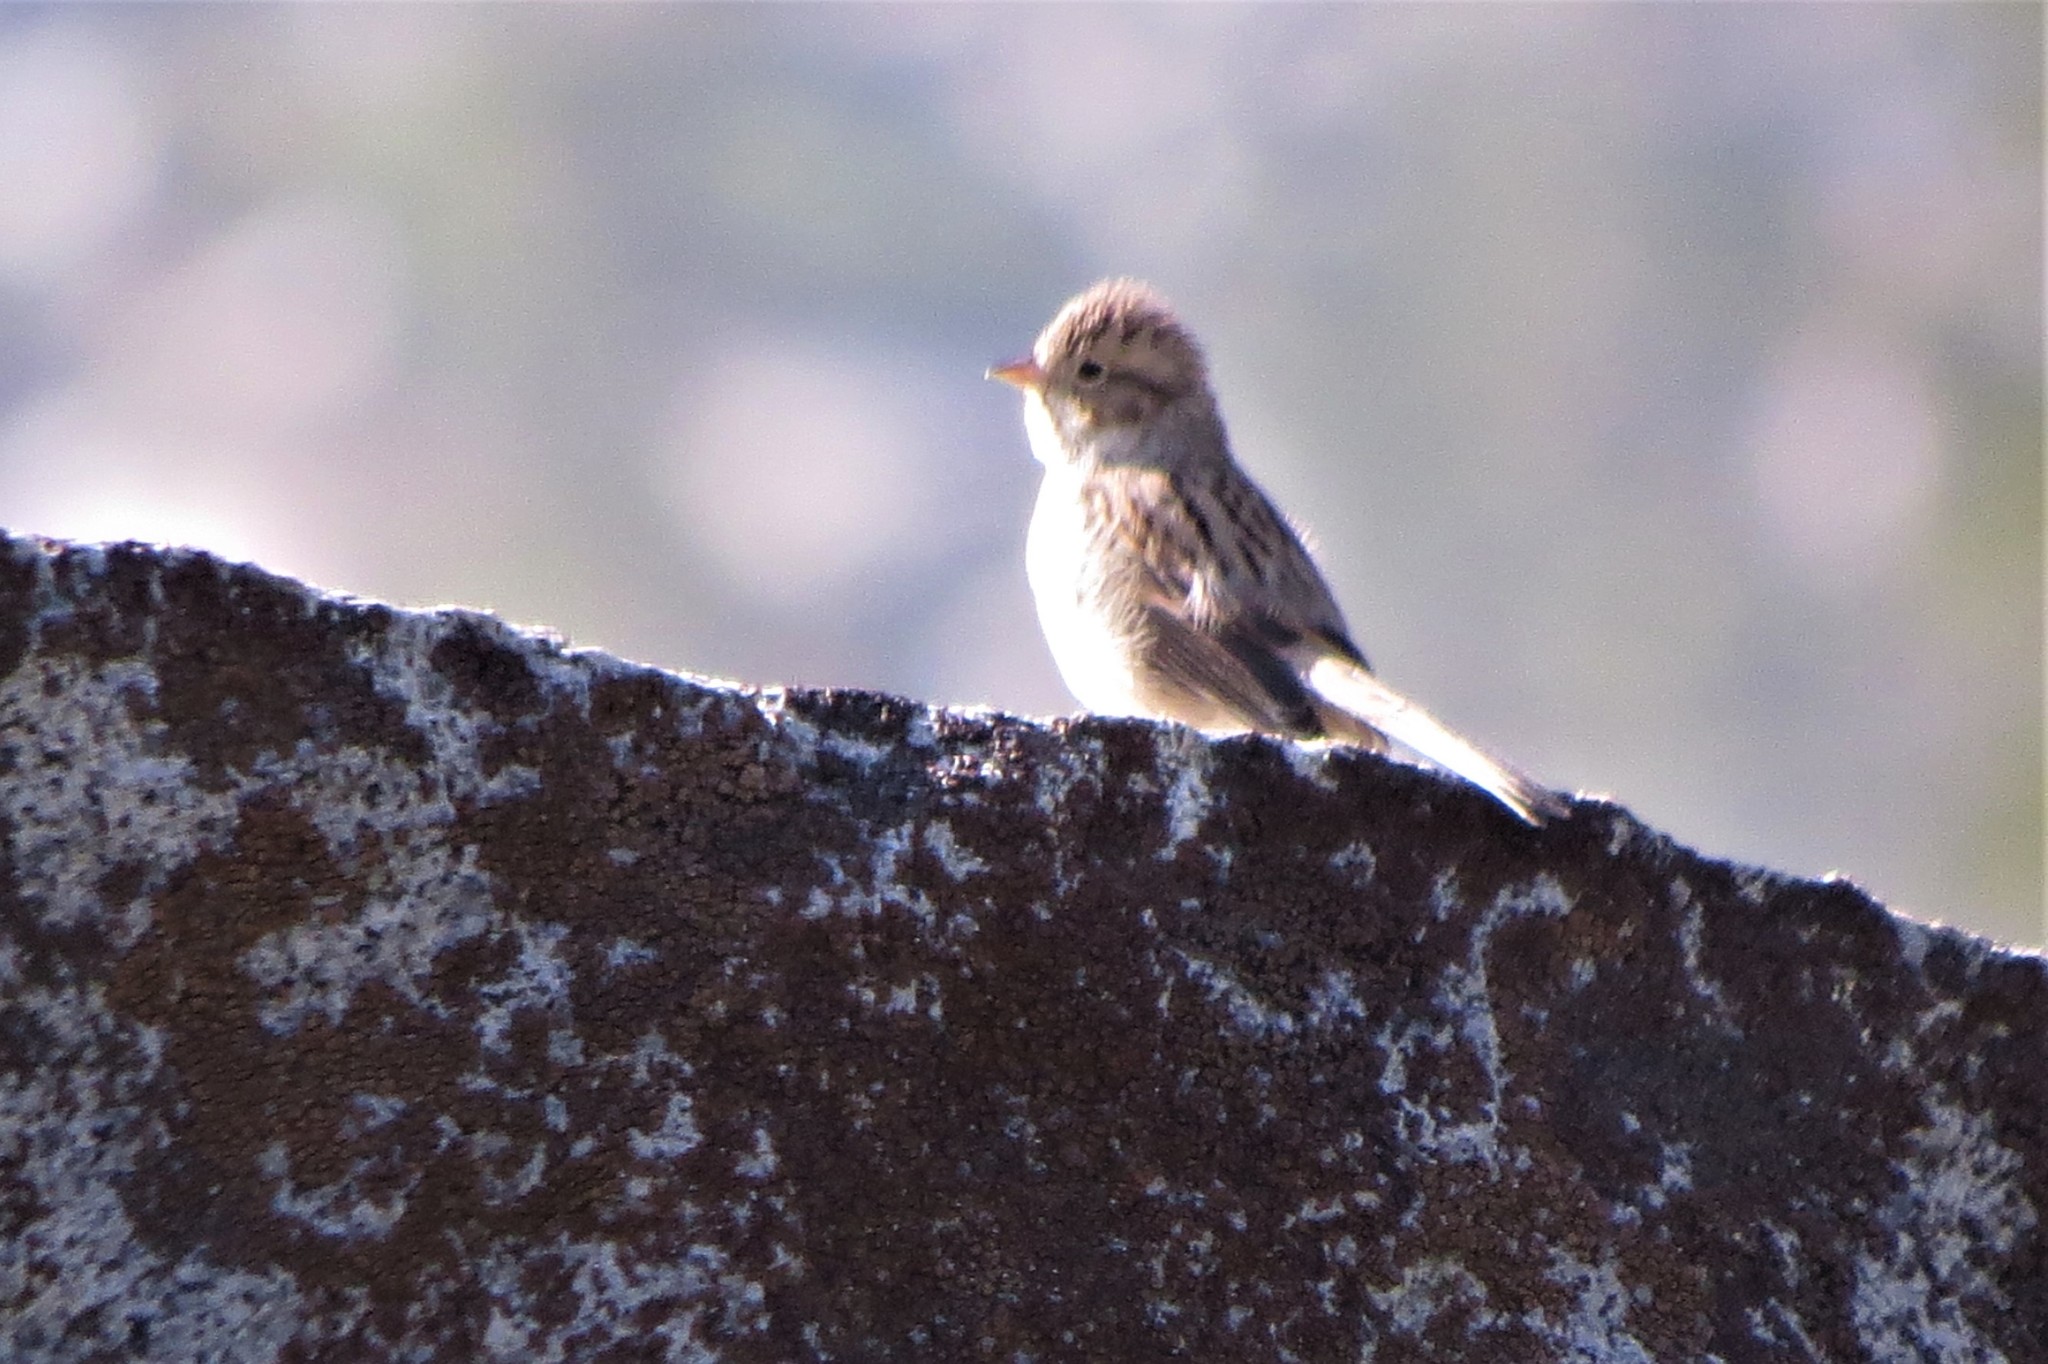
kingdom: Animalia
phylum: Chordata
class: Aves
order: Passeriformes
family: Passerellidae
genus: Spizella
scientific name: Spizella breweri
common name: Brewer's sparrow
